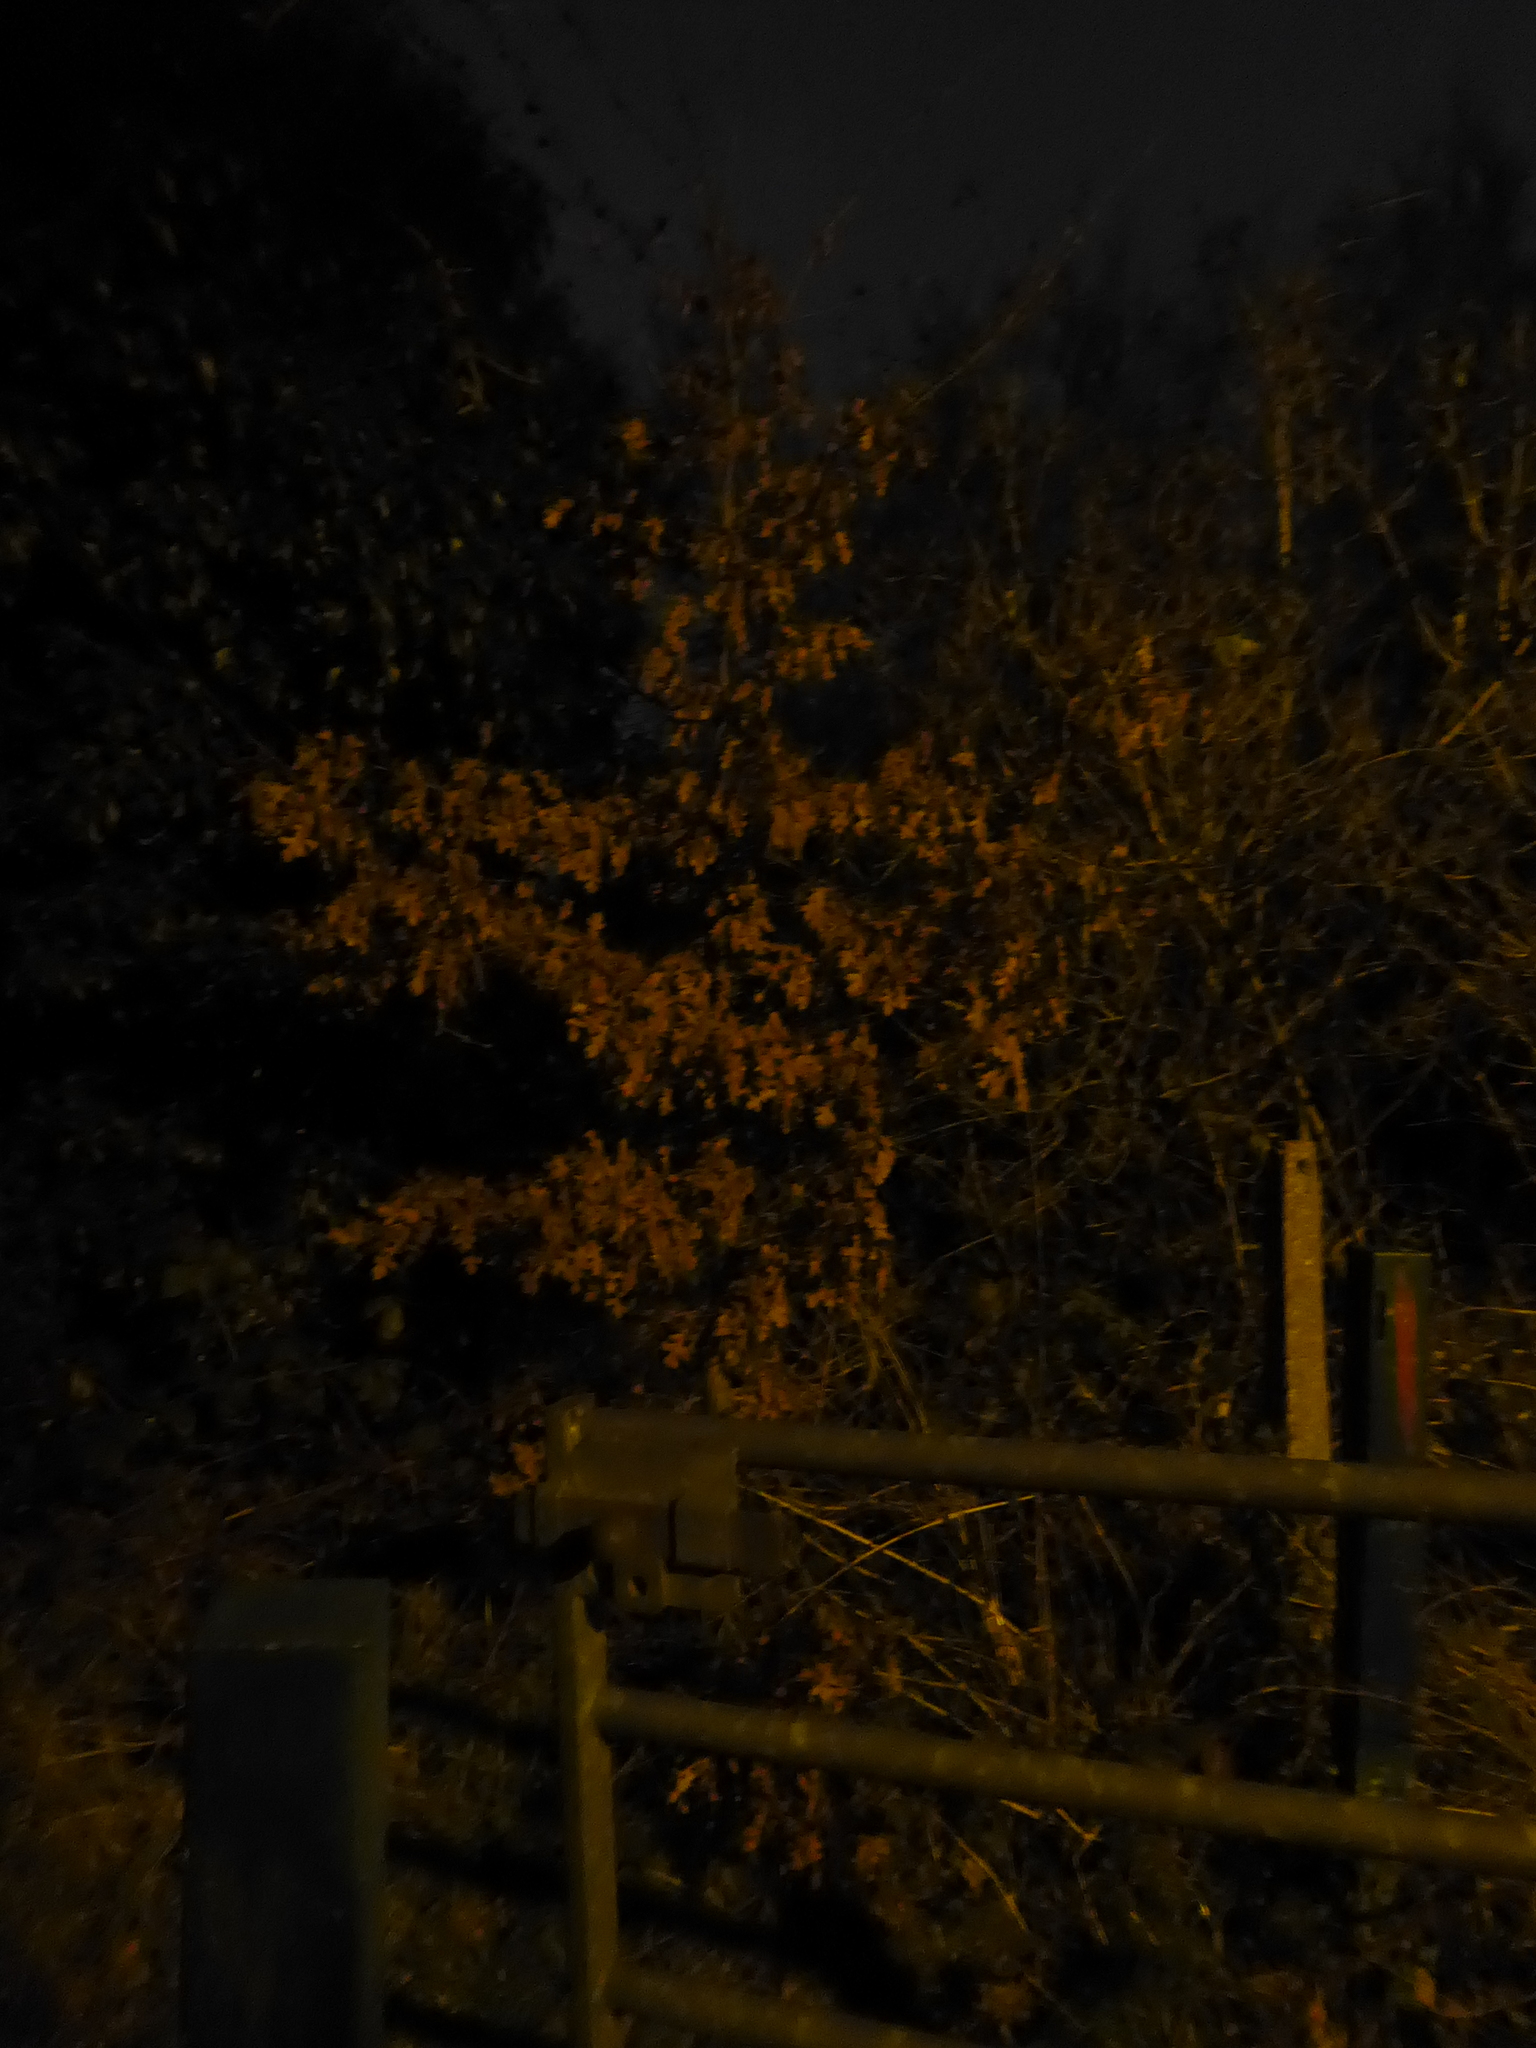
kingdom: Plantae
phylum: Tracheophyta
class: Magnoliopsida
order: Fagales
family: Fagaceae
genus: Quercus
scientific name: Quercus cerris
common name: Turkey oak
